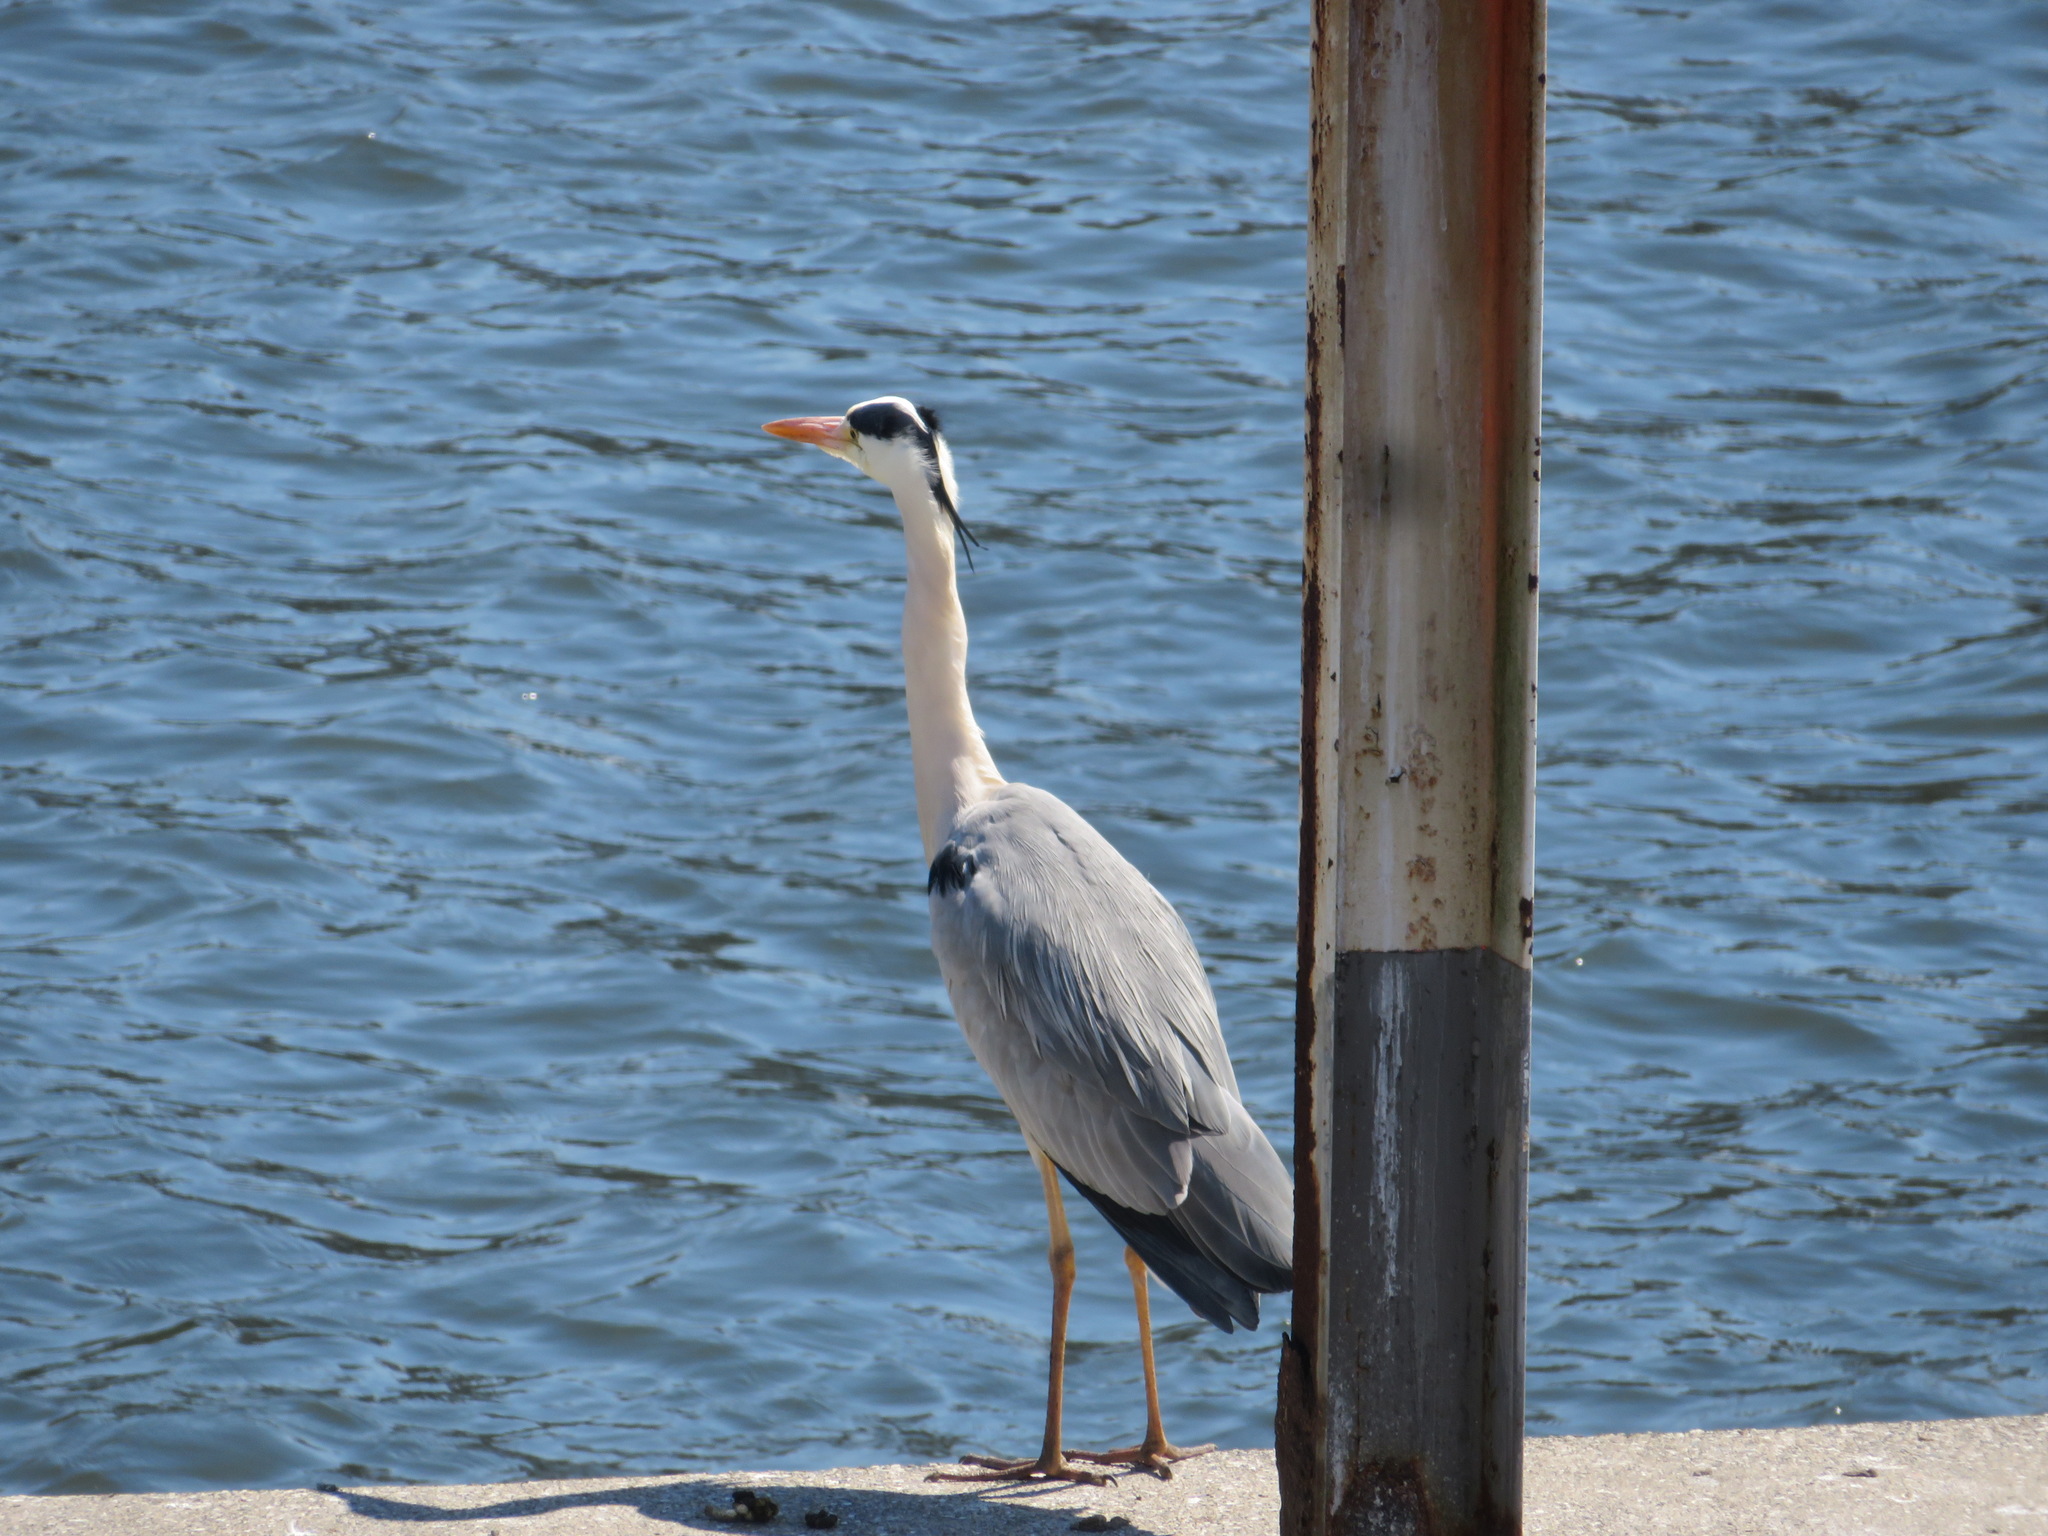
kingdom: Animalia
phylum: Chordata
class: Aves
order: Pelecaniformes
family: Ardeidae
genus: Ardea
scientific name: Ardea cinerea
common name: Grey heron
